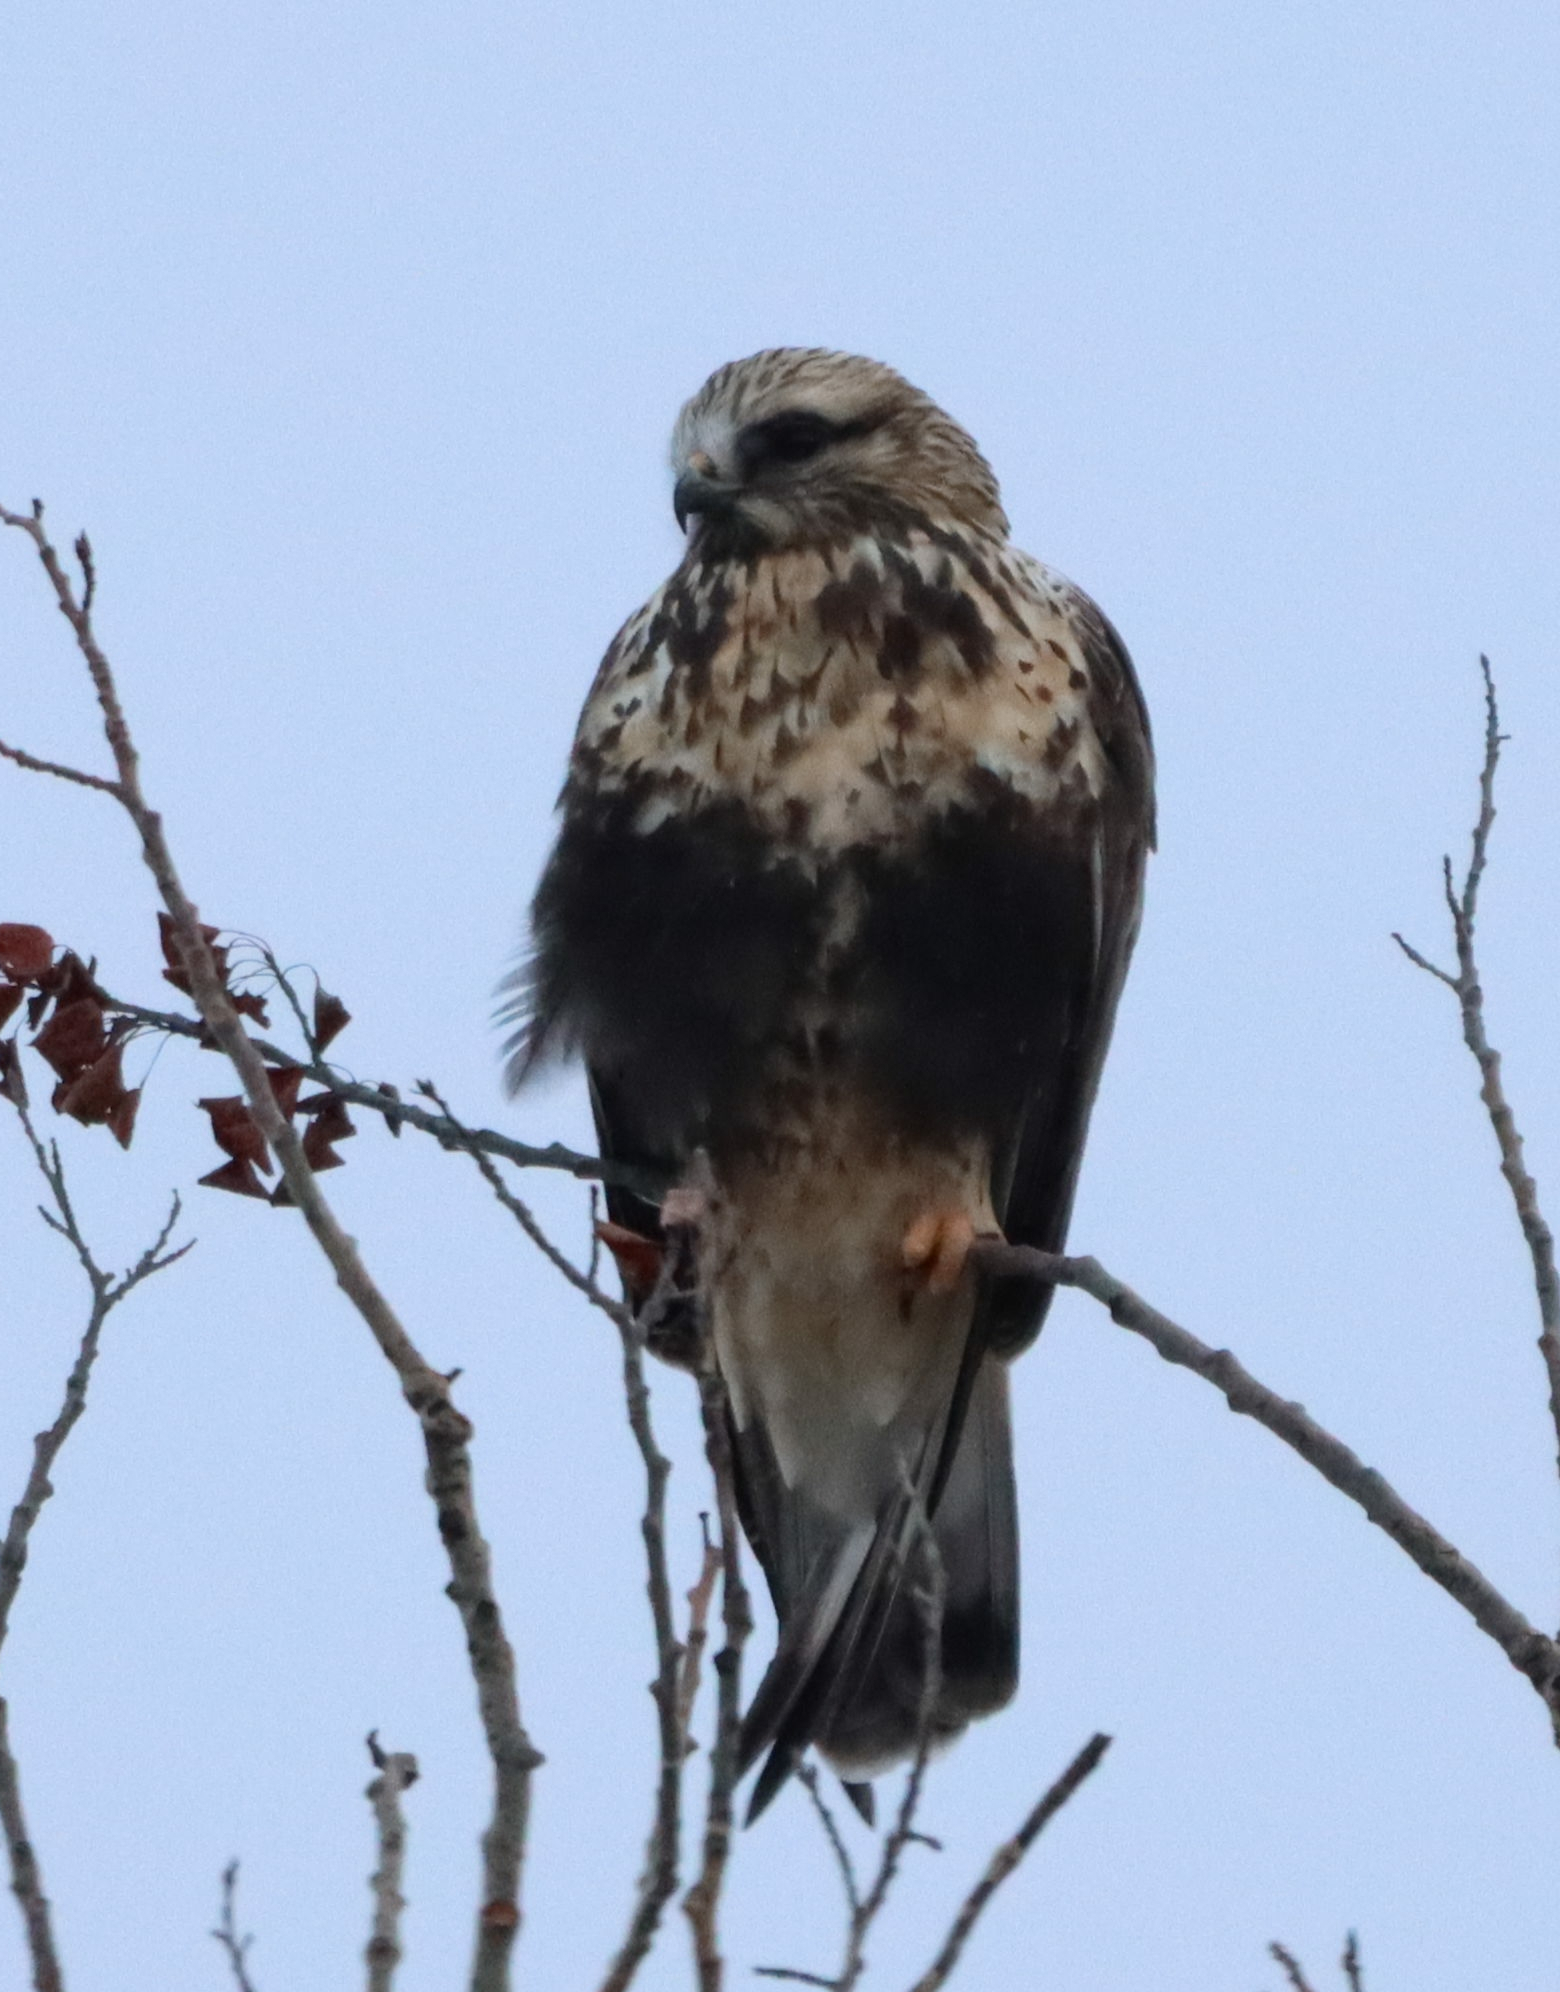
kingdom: Animalia
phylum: Chordata
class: Aves
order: Accipitriformes
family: Accipitridae
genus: Buteo
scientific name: Buteo lagopus
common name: Rough-legged buzzard
